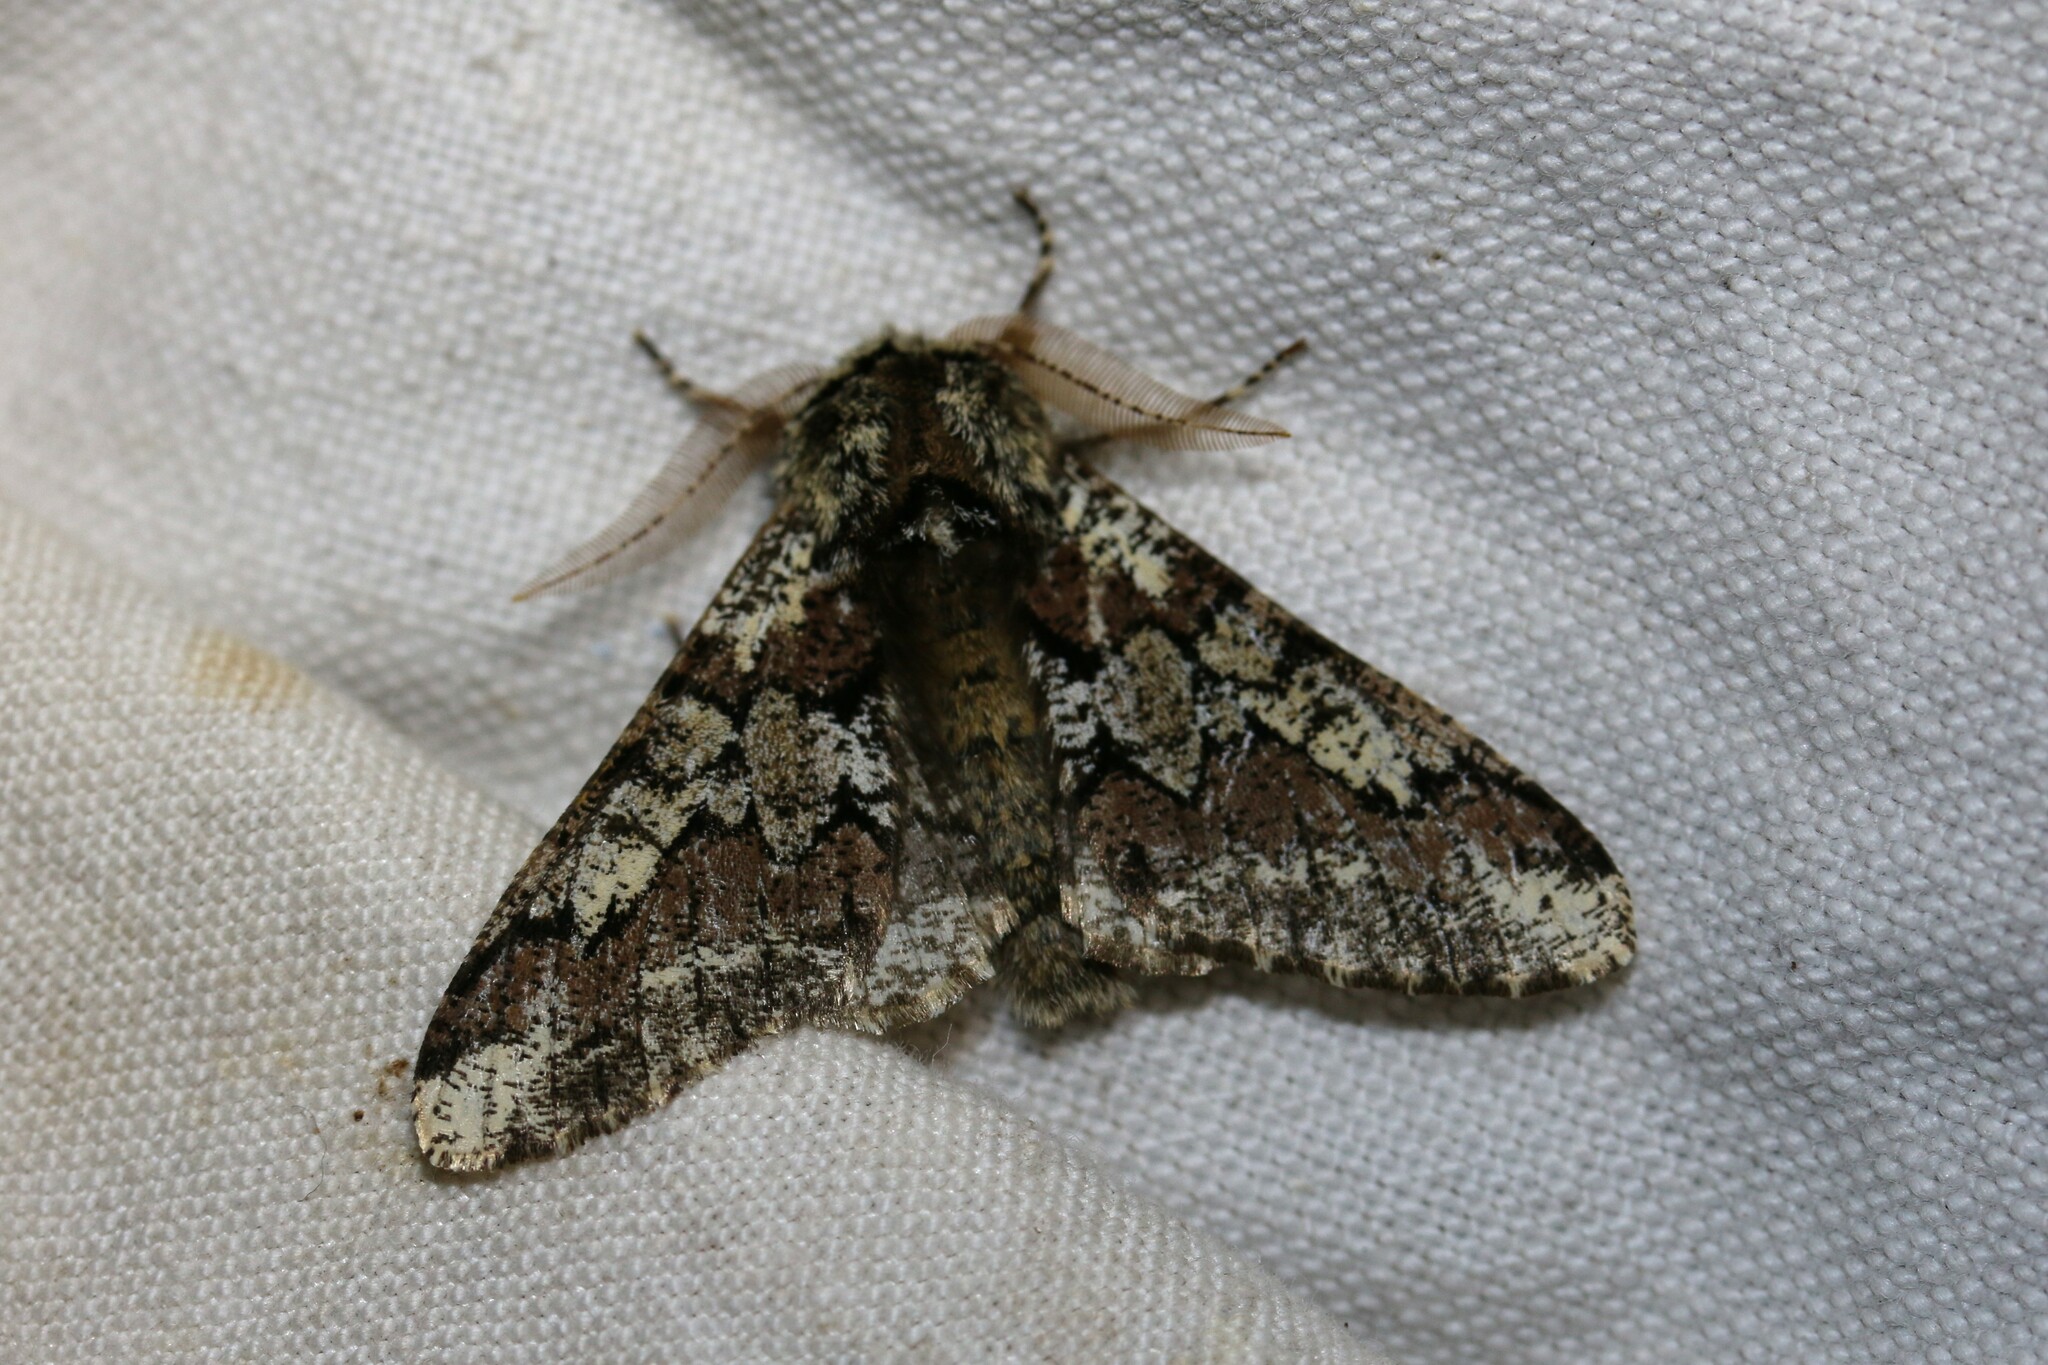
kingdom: Animalia
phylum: Arthropoda
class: Insecta
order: Lepidoptera
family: Geometridae
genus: Biston
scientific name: Biston strataria
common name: Oak beauty
